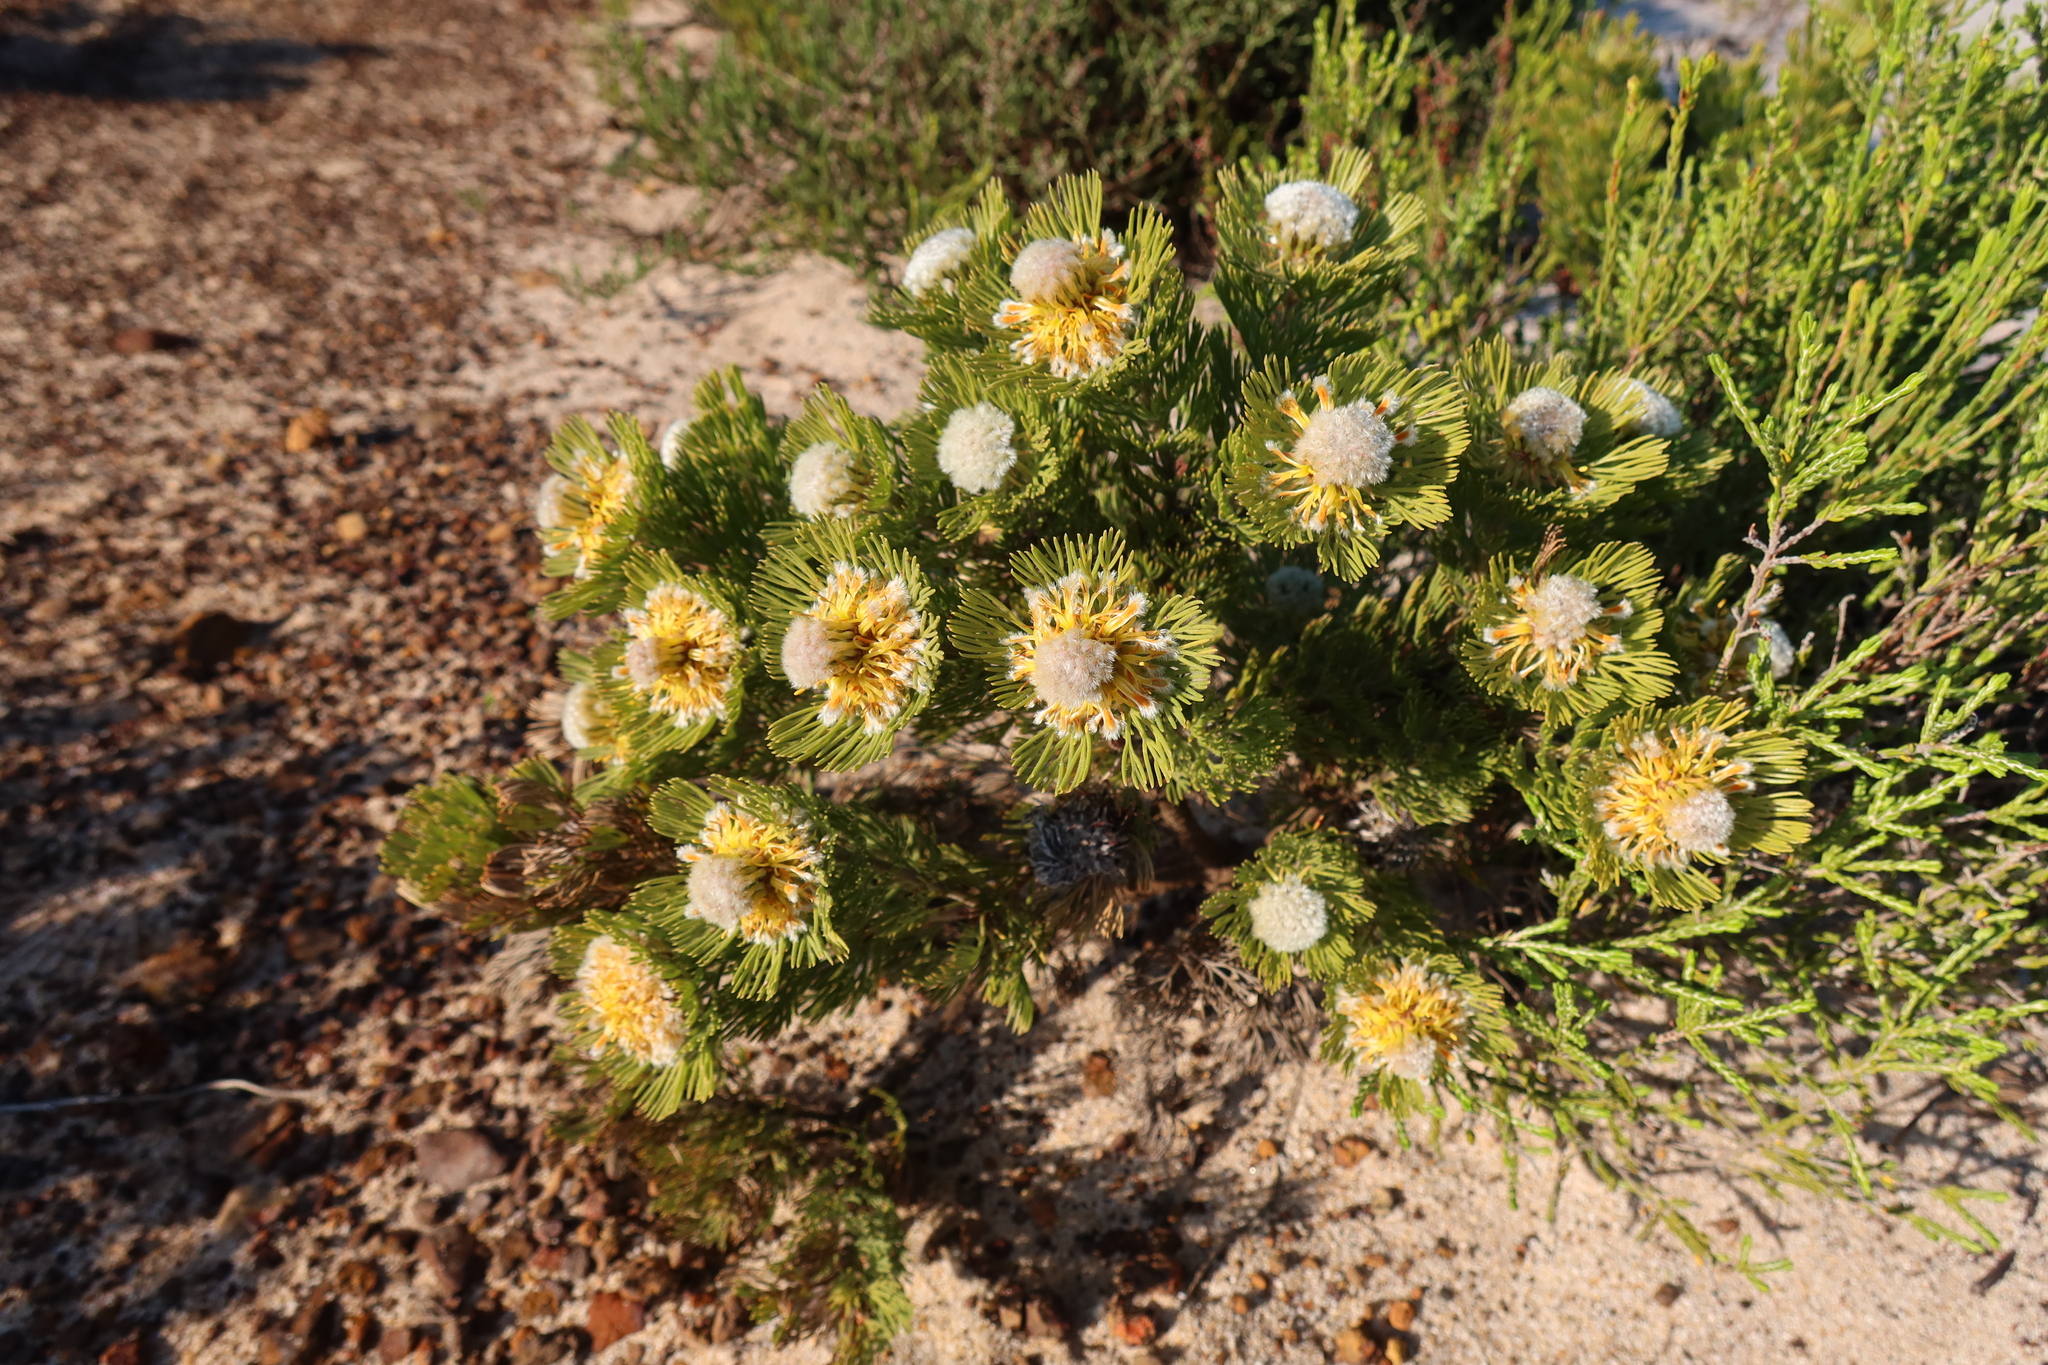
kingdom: Plantae
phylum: Tracheophyta
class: Magnoliopsida
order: Proteales
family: Proteaceae
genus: Serruria
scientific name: Serruria villosa
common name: Golden spiderhead
